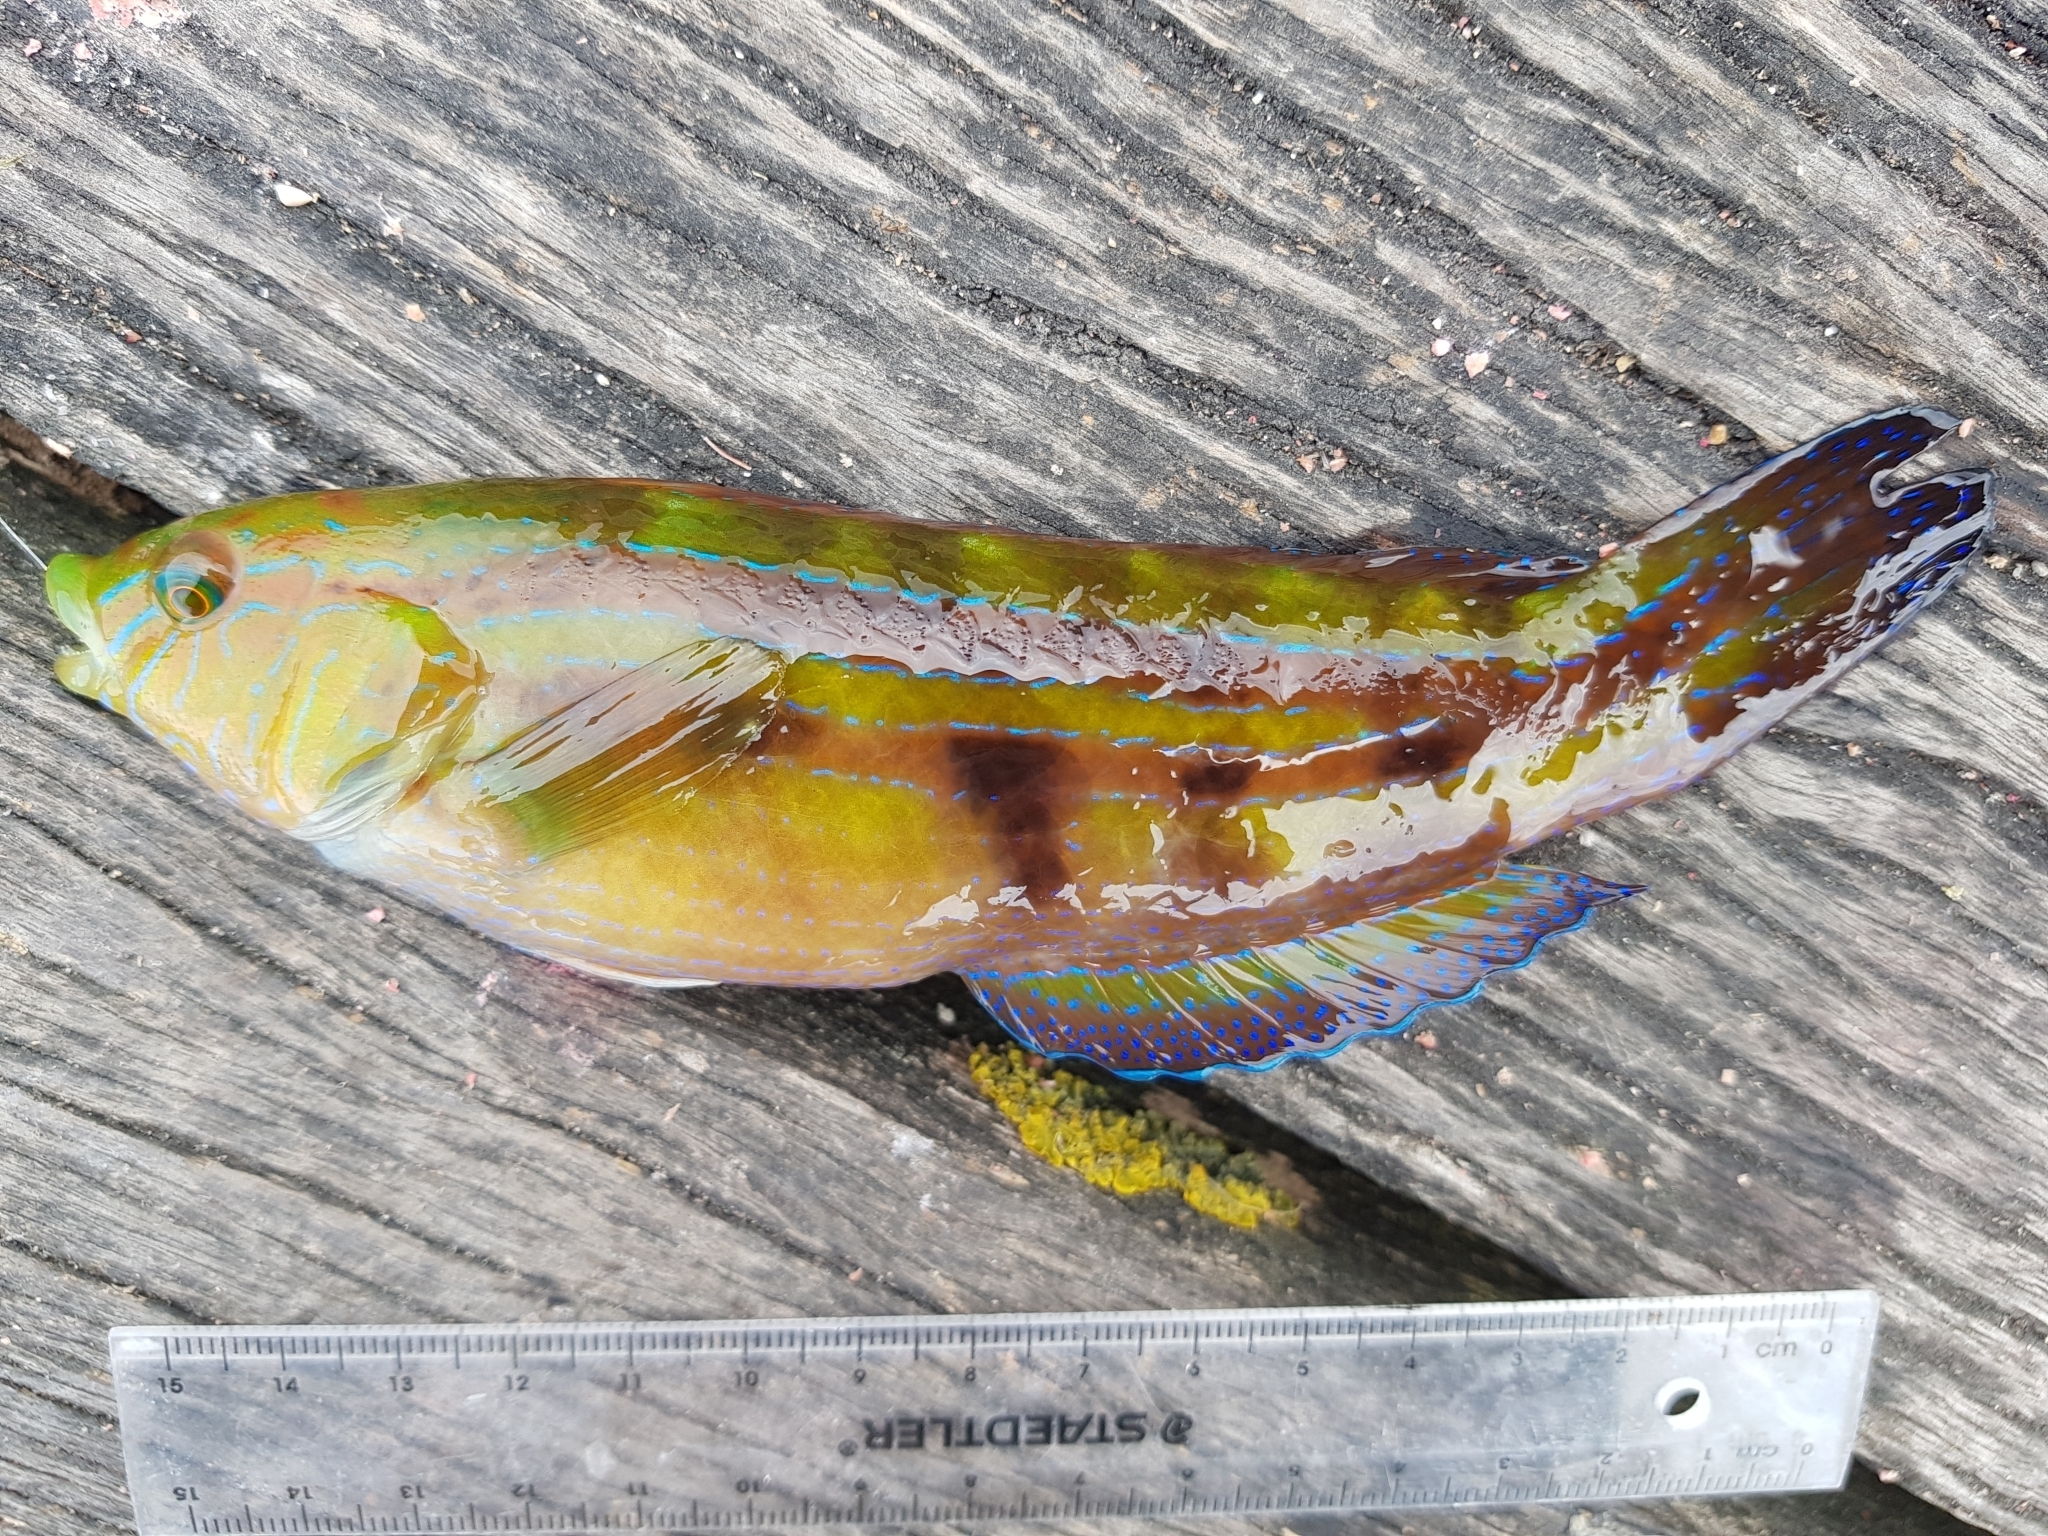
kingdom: Animalia
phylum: Chordata
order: Perciformes
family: Labridae
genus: Pictilabrus
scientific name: Pictilabrus laticlavius
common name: Patrician wrasse
